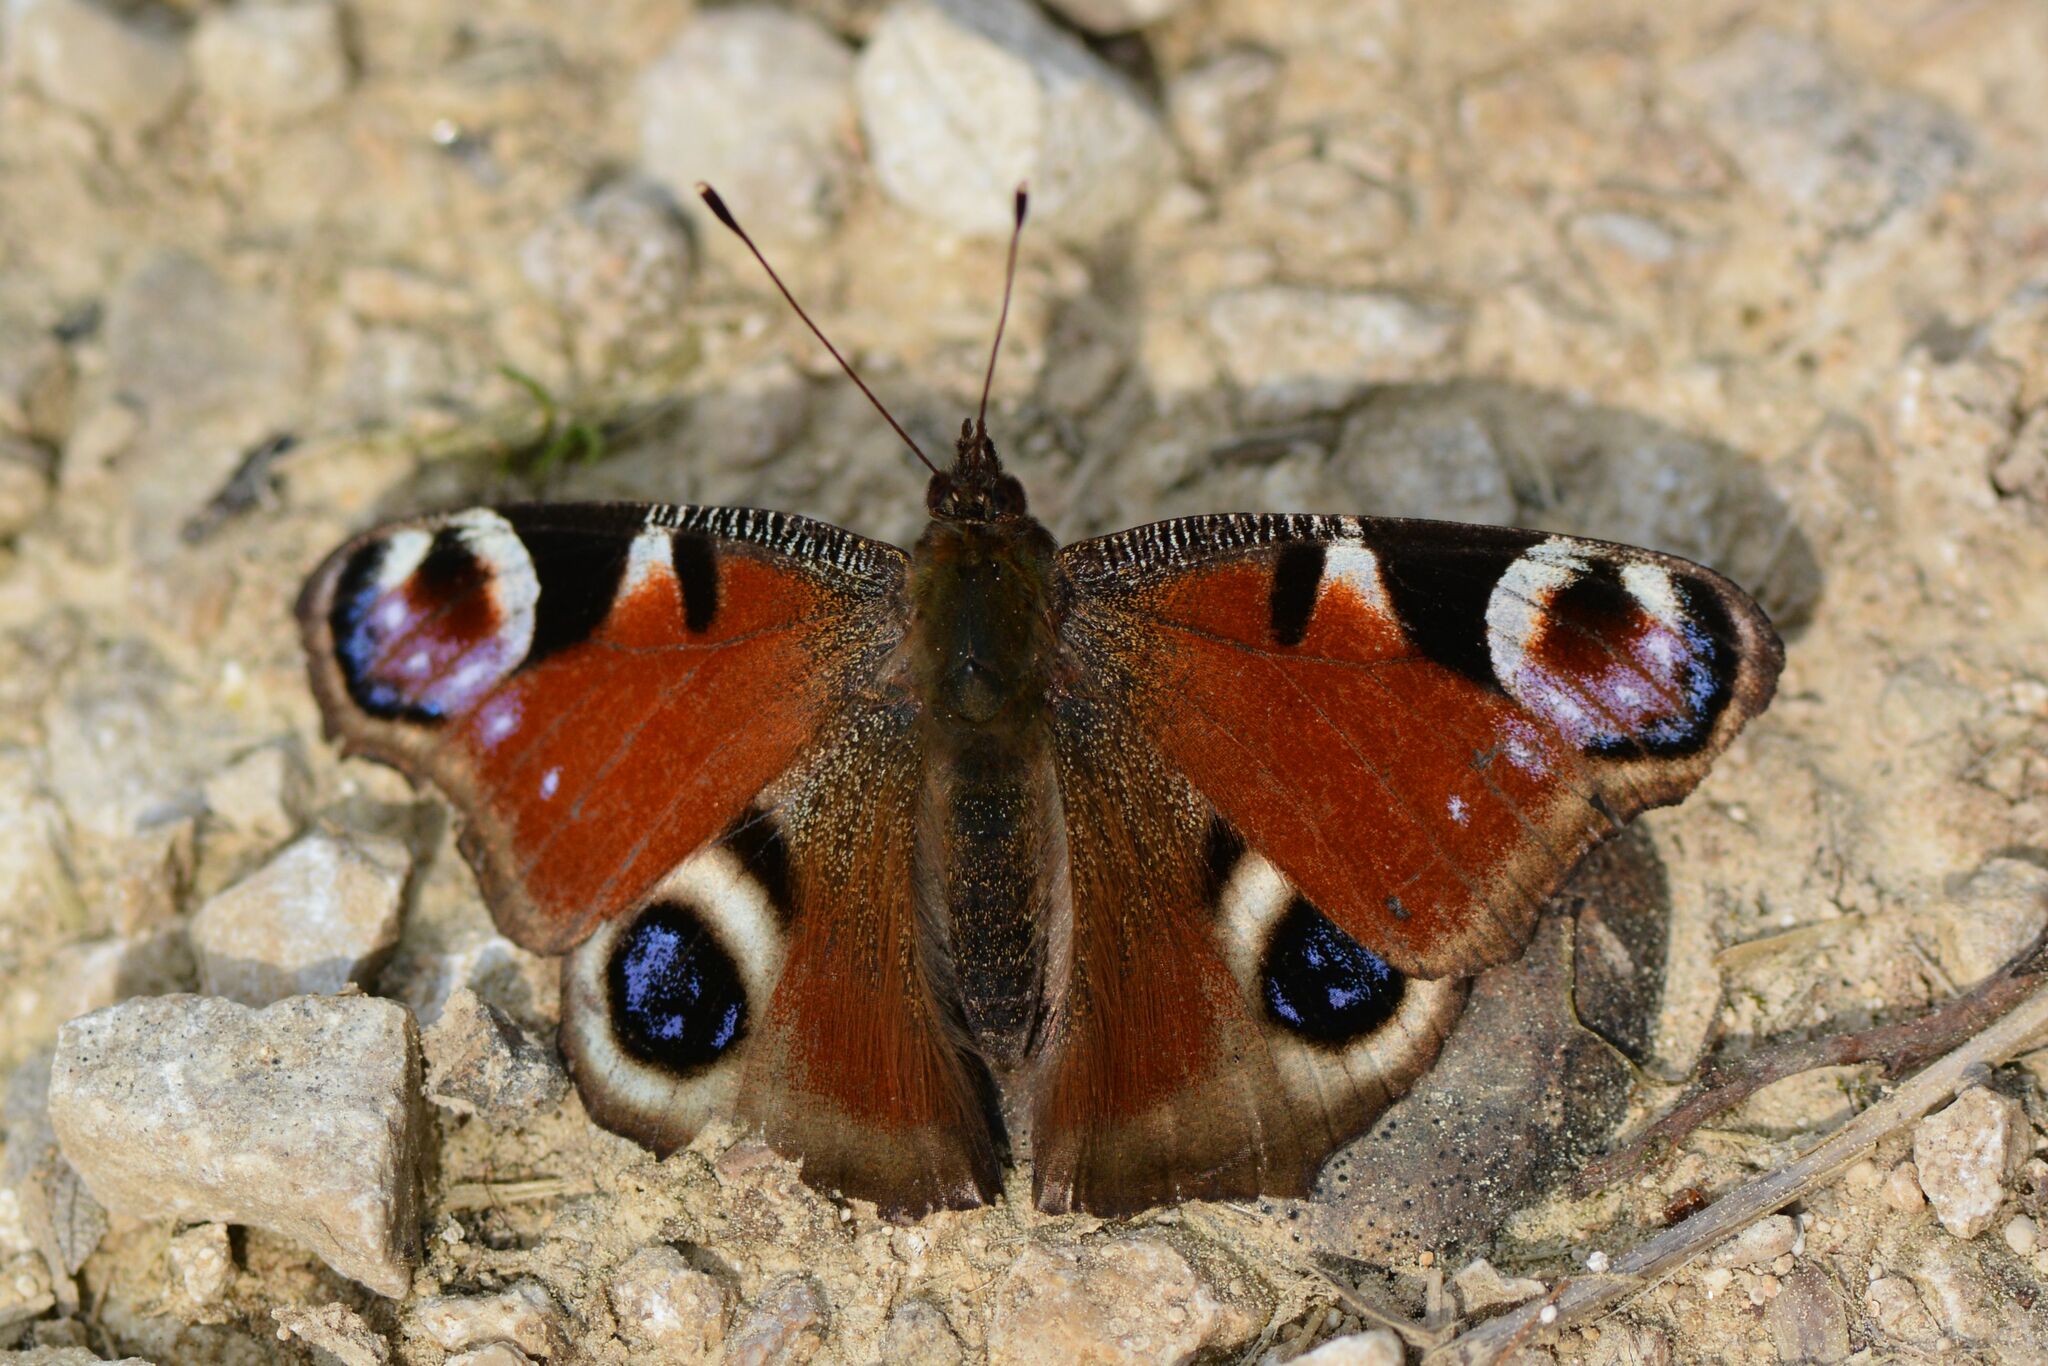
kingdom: Animalia
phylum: Arthropoda
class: Insecta
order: Lepidoptera
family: Nymphalidae
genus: Aglais
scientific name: Aglais io
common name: Peacock
